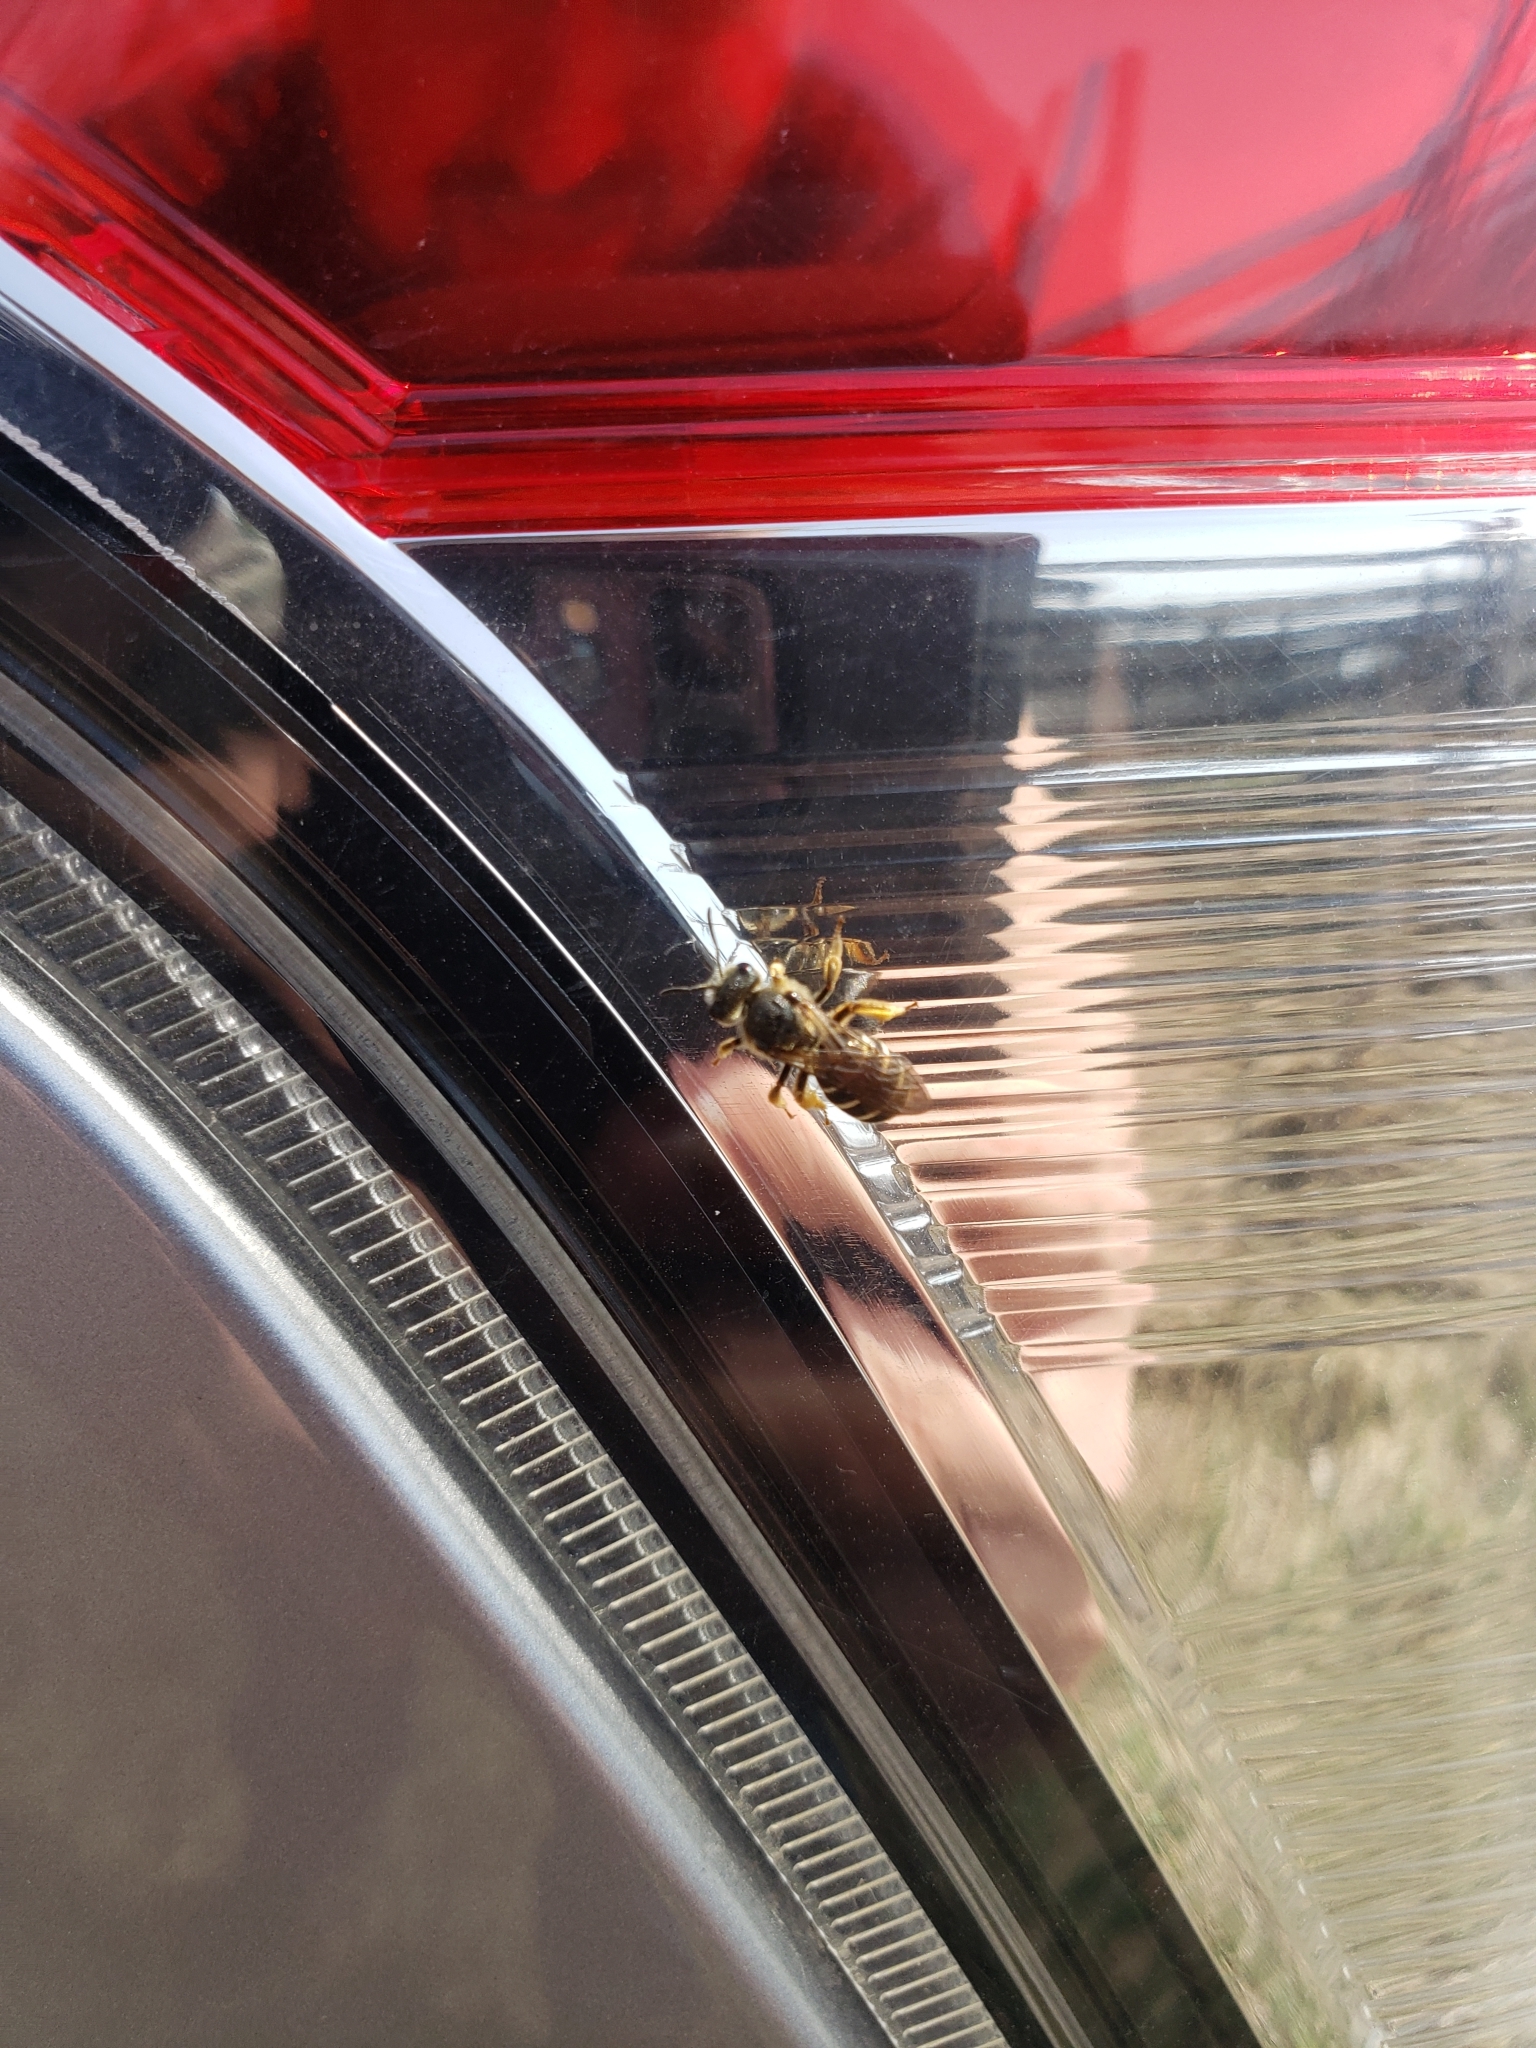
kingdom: Animalia
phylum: Arthropoda
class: Insecta
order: Hymenoptera
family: Halictidae
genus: Halictus
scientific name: Halictus rubicundus
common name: Orange-legged furrow bee
